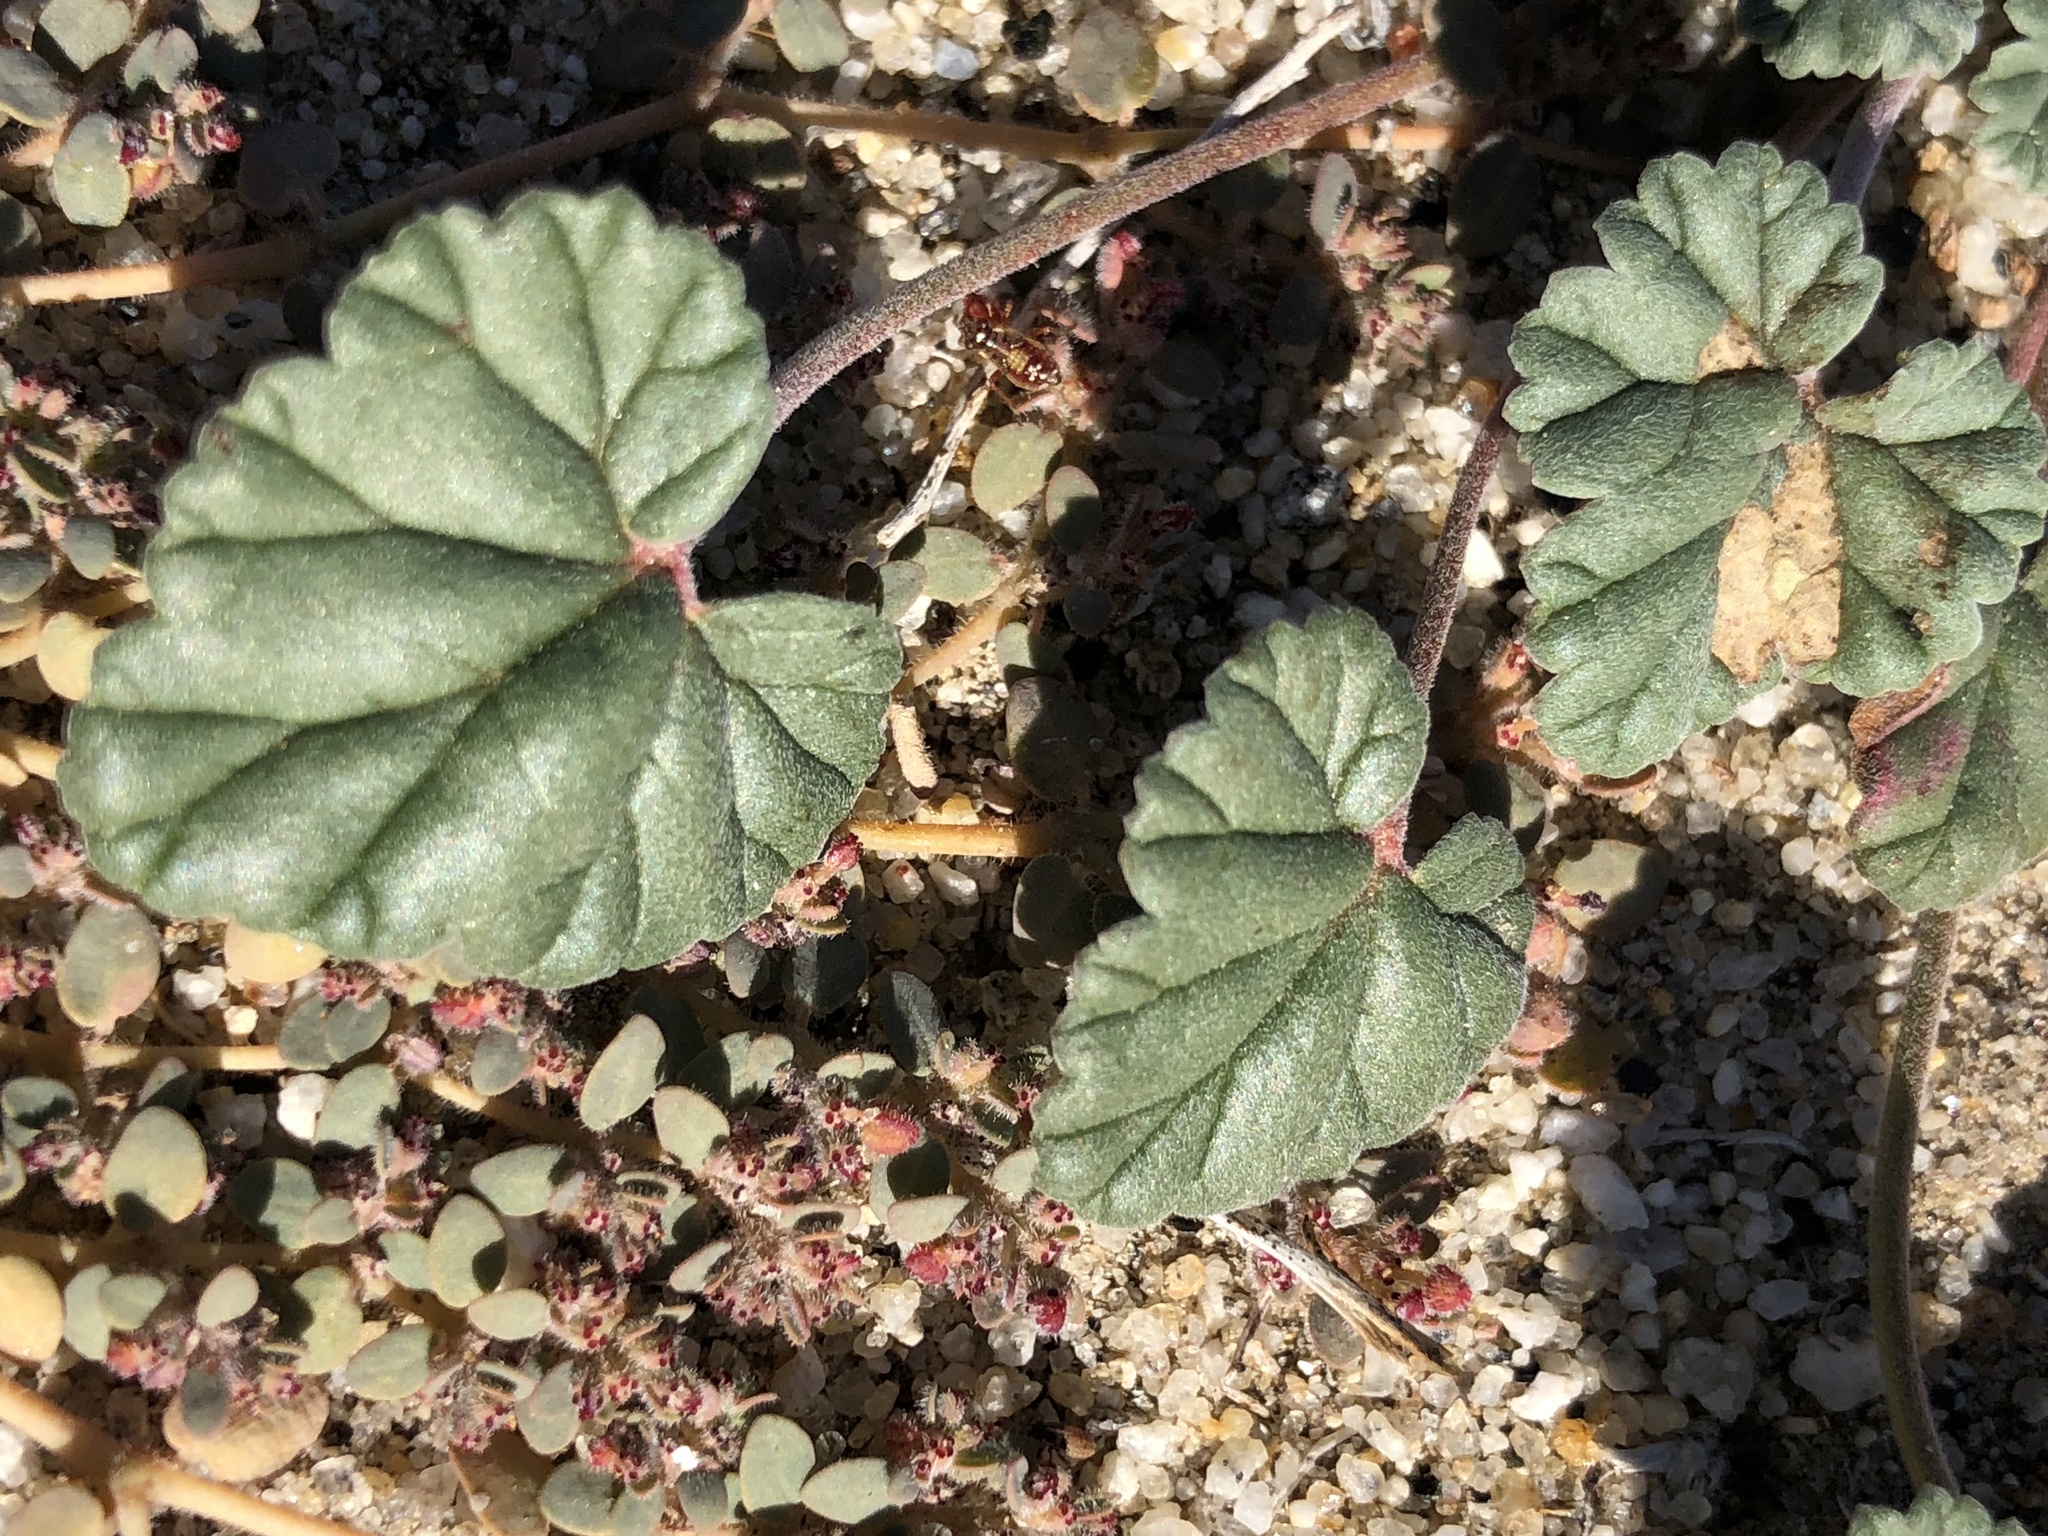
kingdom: Plantae
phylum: Tracheophyta
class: Magnoliopsida
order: Geraniales
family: Geraniaceae
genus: Erodium
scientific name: Erodium texanum
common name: Texas stork's-bill
